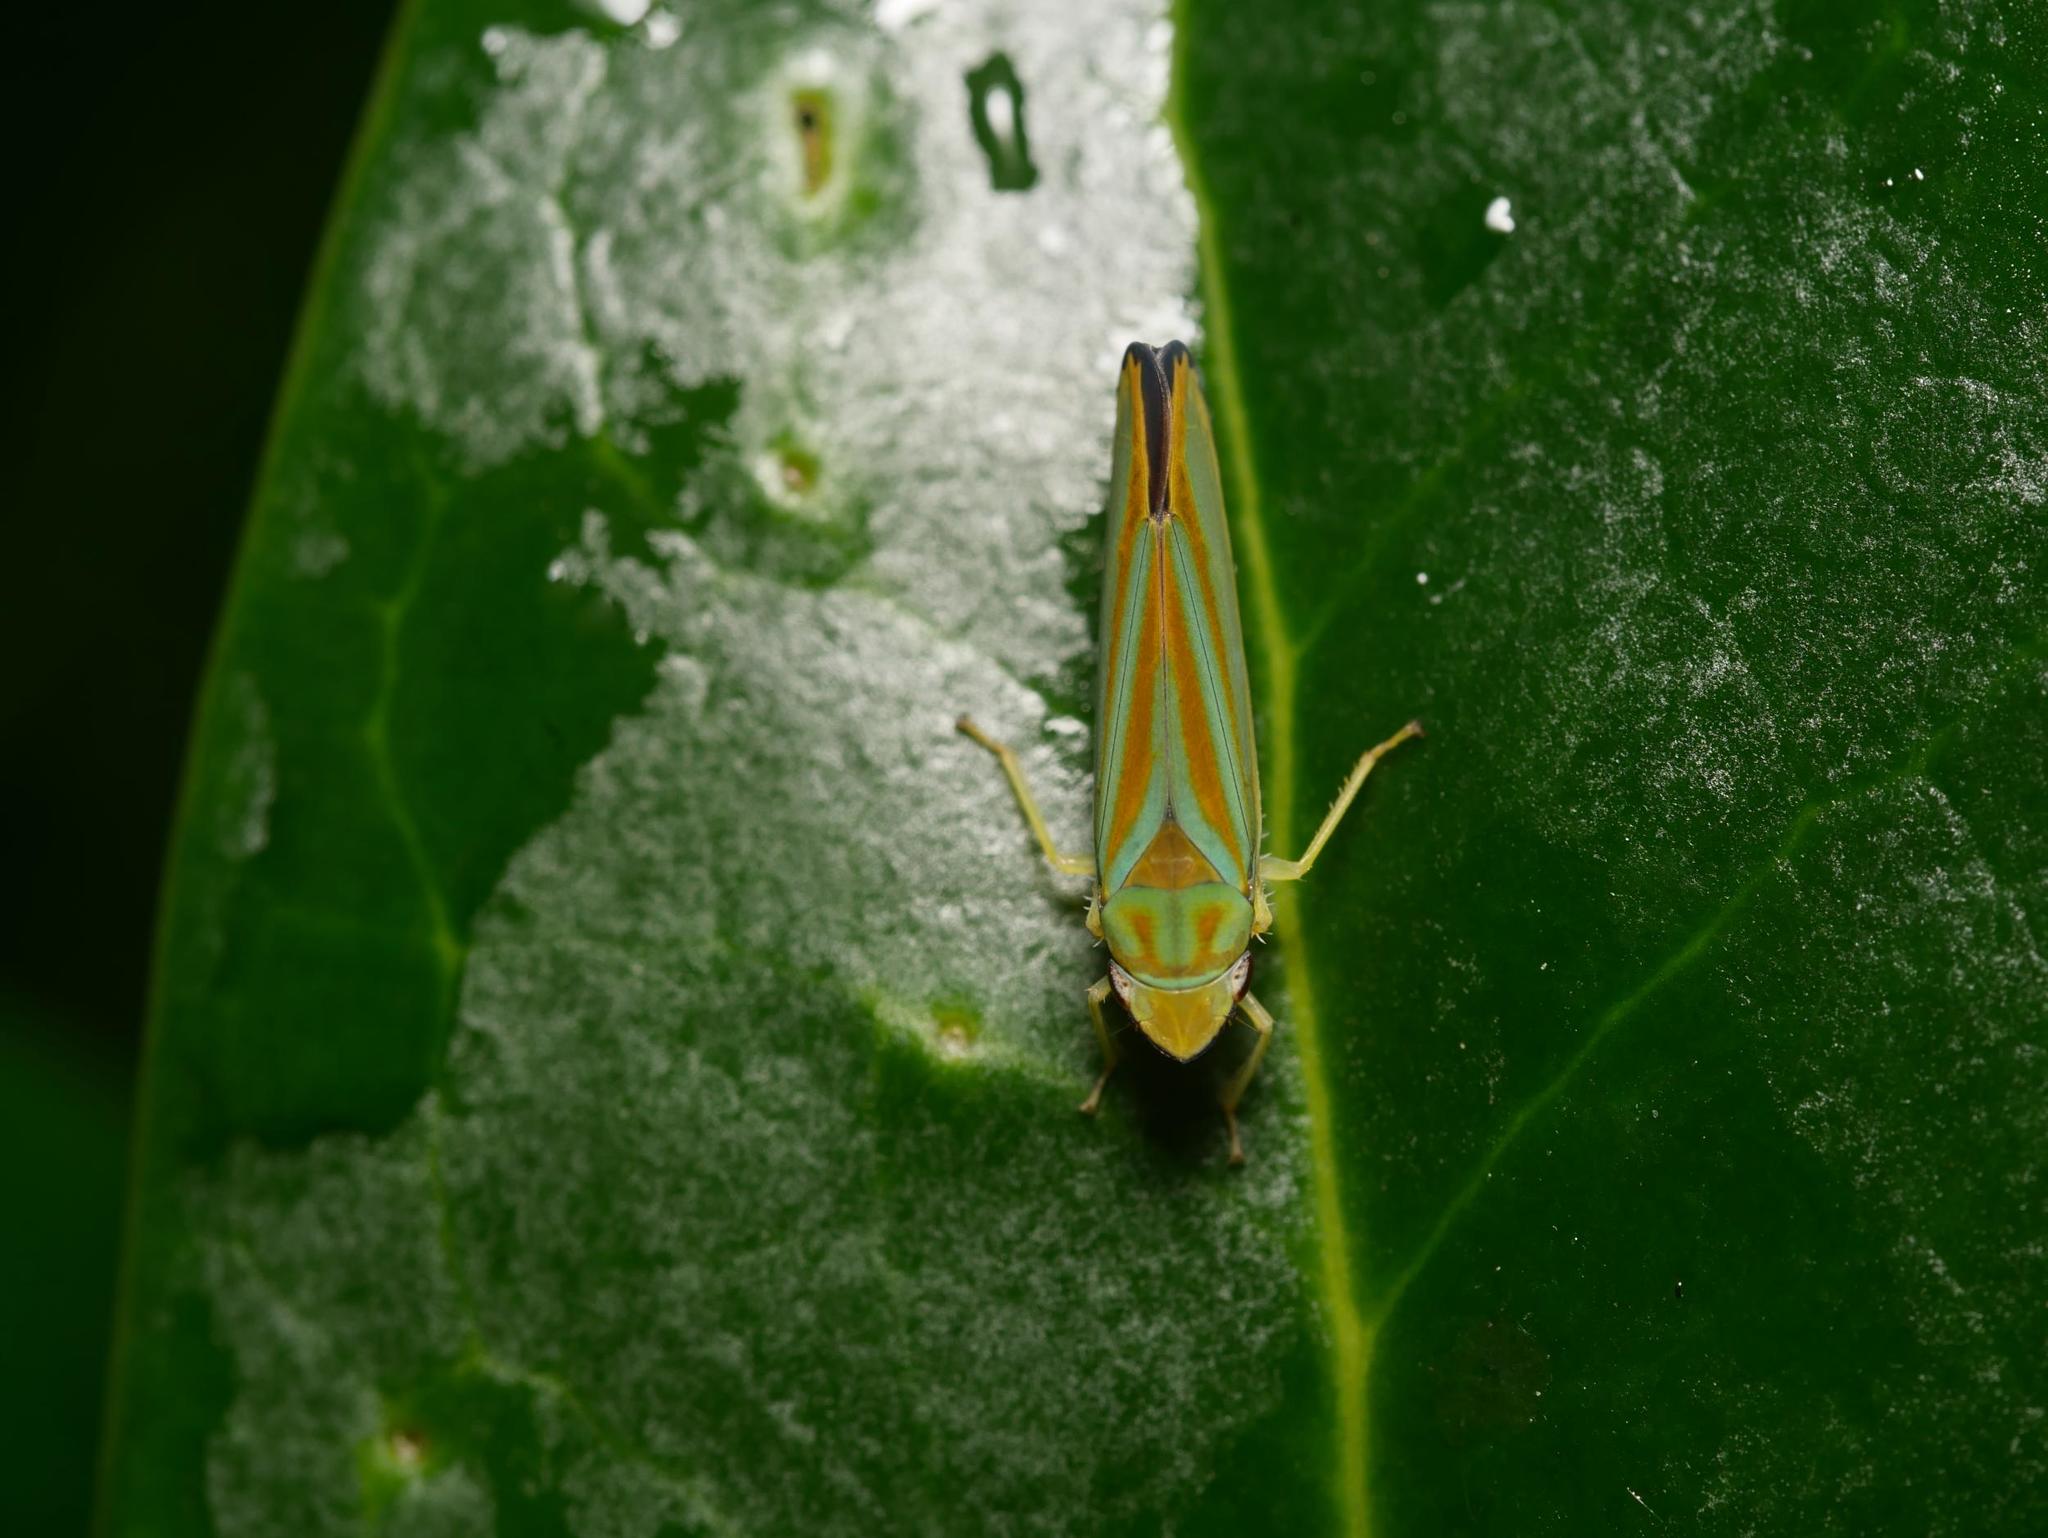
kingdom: Animalia
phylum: Arthropoda
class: Insecta
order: Hemiptera
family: Cicadellidae
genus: Graphocephala
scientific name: Graphocephala fennahi
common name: Rhododendron leafhopper
